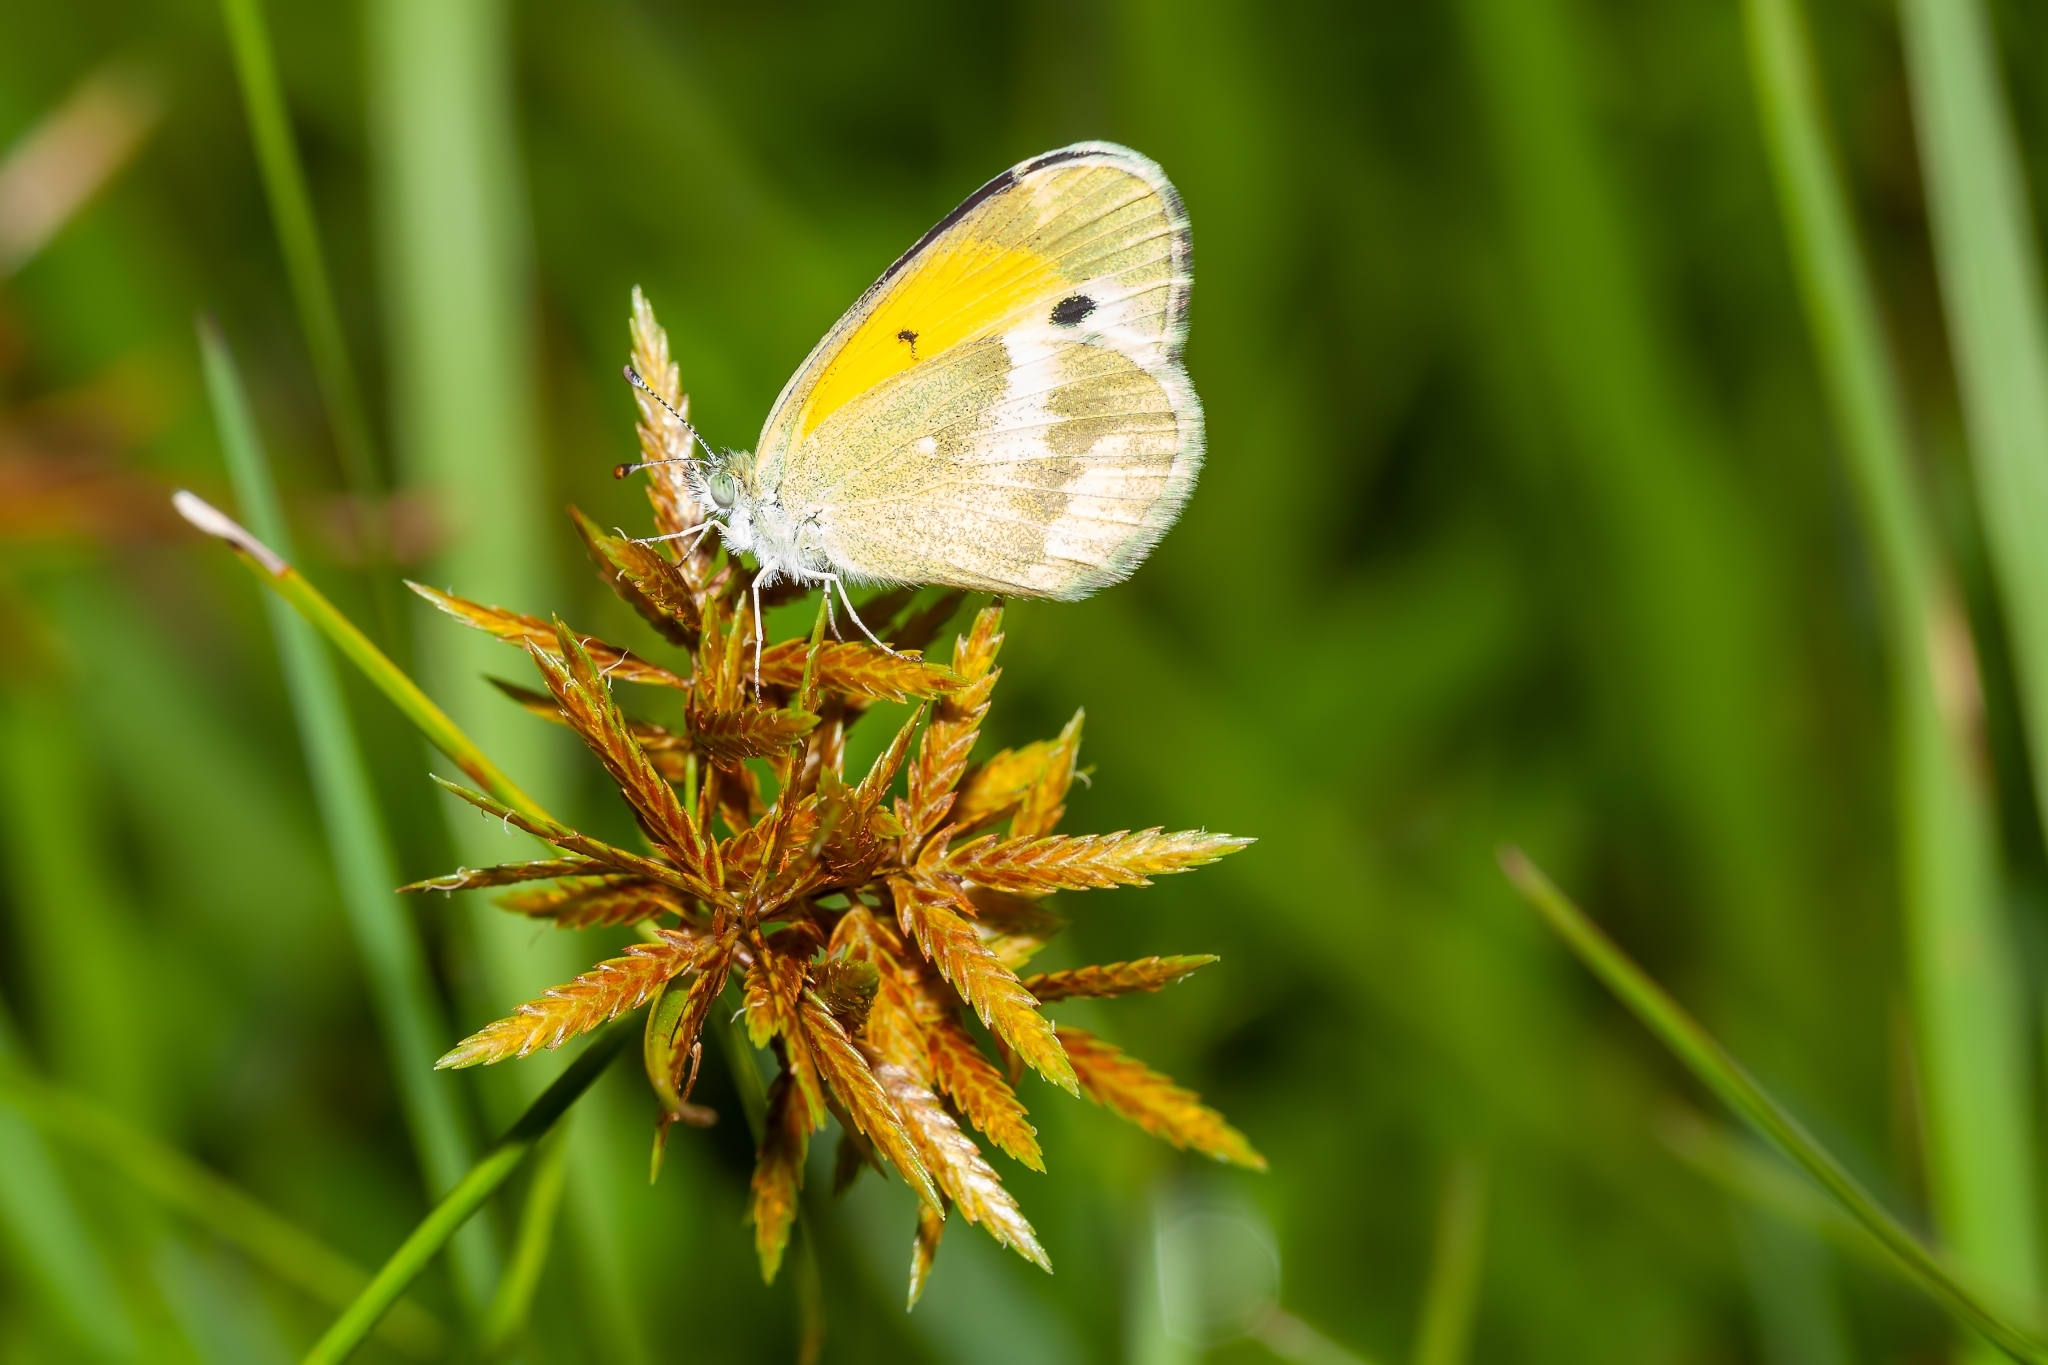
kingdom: Animalia
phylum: Arthropoda
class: Insecta
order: Lepidoptera
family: Pieridae
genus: Nathalis
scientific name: Nathalis iole
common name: Dainty sulphur
